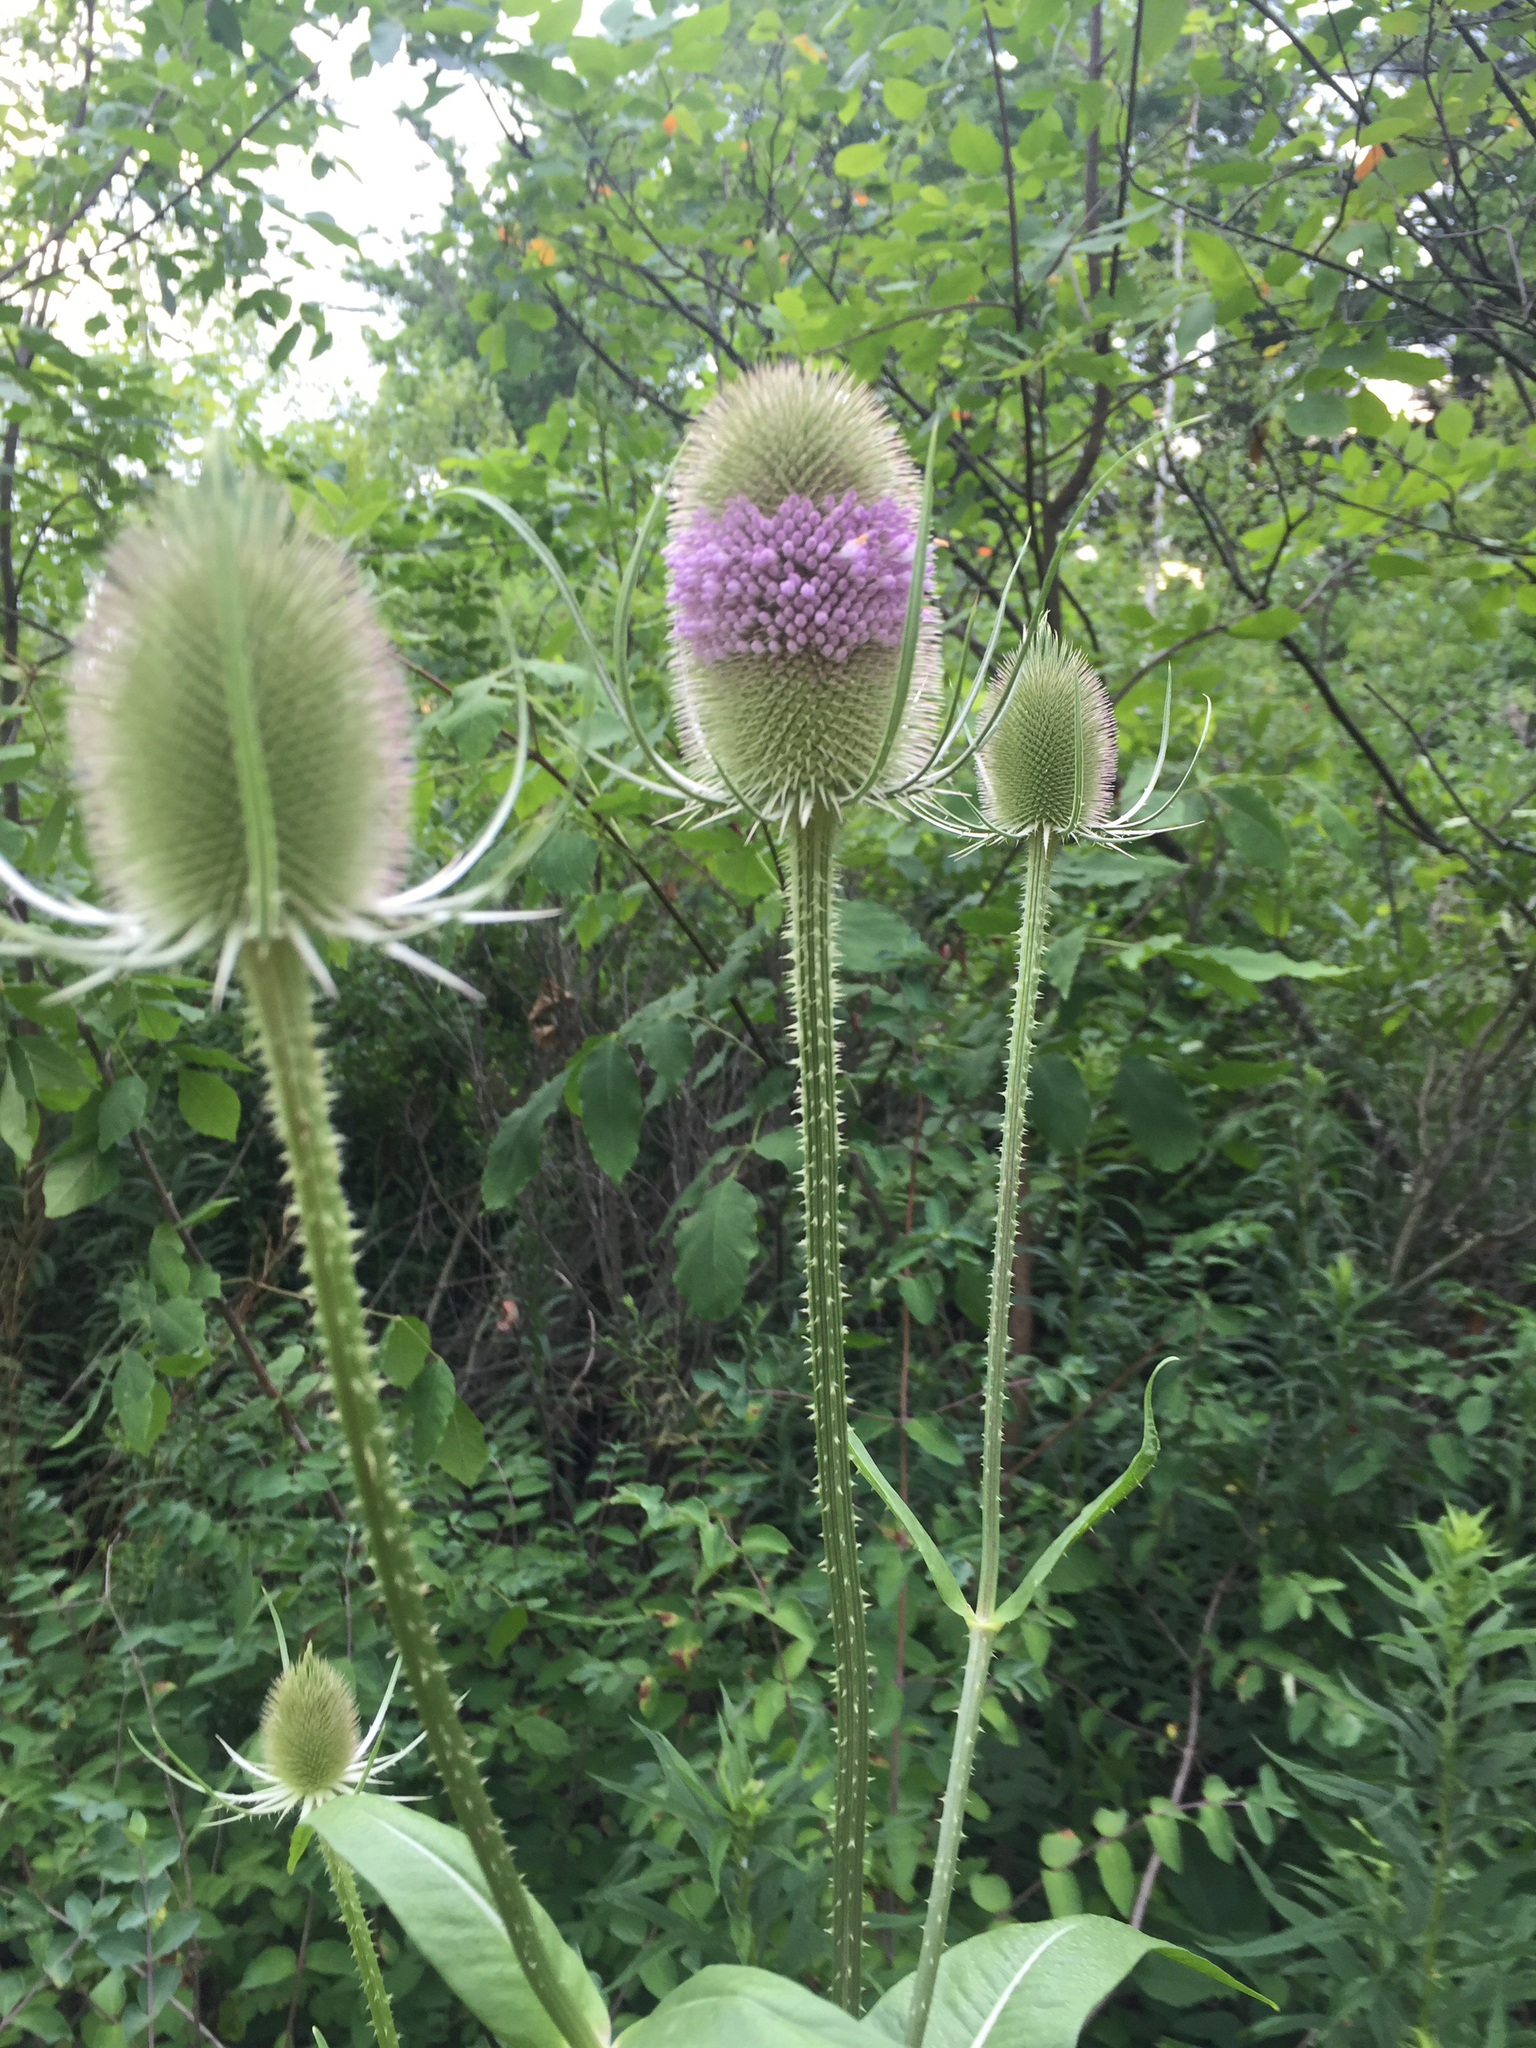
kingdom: Plantae
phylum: Tracheophyta
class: Magnoliopsida
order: Dipsacales
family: Caprifoliaceae
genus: Dipsacus
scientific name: Dipsacus fullonum
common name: Teasel
